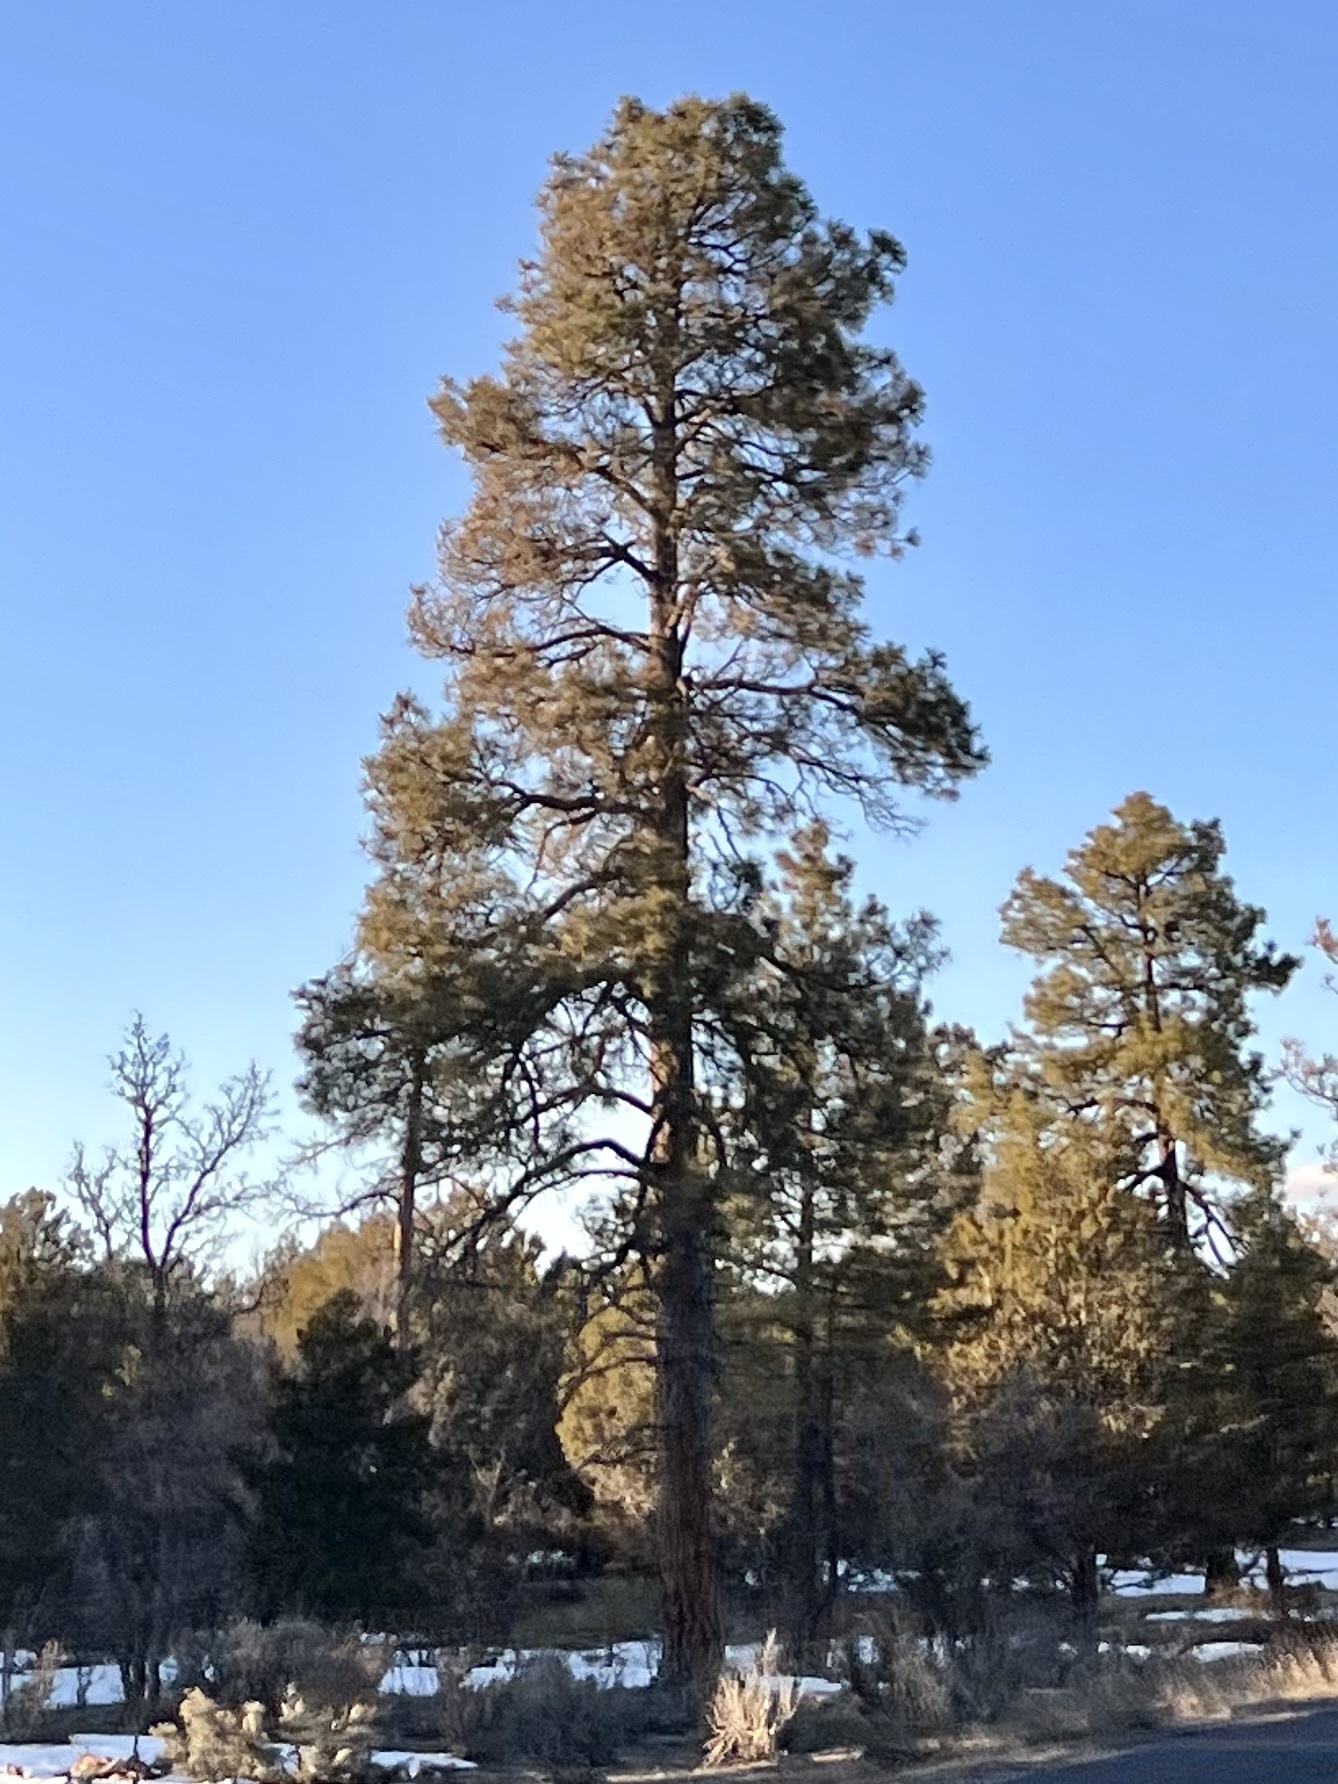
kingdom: Plantae
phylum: Tracheophyta
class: Pinopsida
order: Pinales
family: Pinaceae
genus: Pinus
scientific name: Pinus ponderosa
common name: Western yellow-pine
